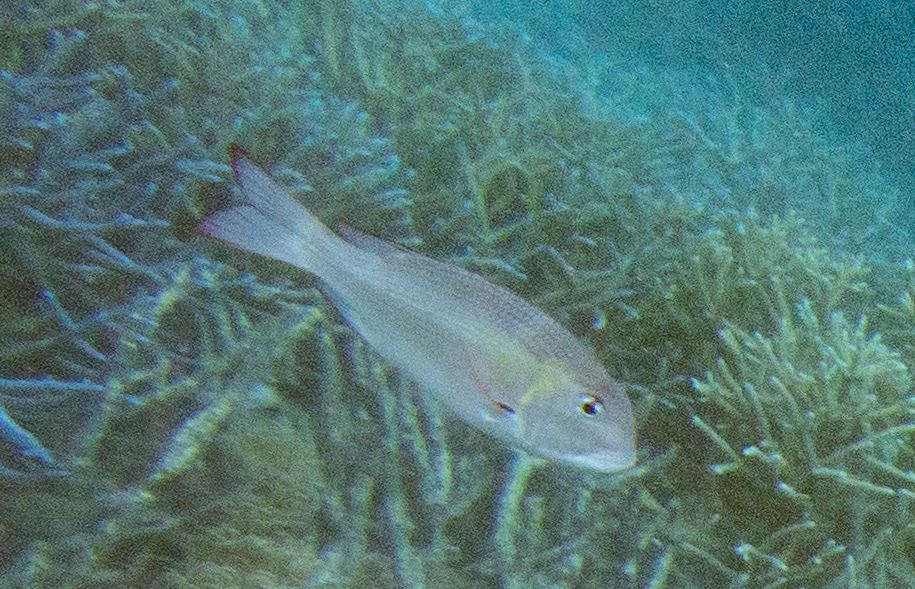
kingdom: Animalia
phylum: Chordata
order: Perciformes
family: Lethrinidae
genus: Monotaxis
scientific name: Monotaxis grandoculis
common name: Bigeye emperor
